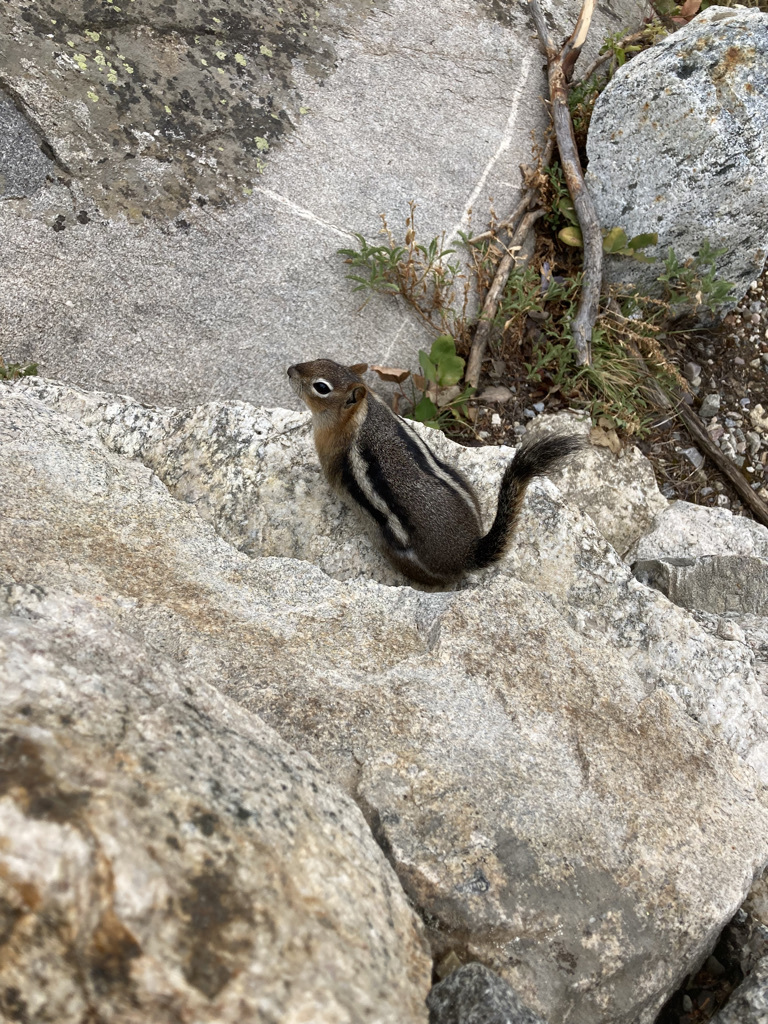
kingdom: Animalia
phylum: Chordata
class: Mammalia
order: Rodentia
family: Sciuridae
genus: Callospermophilus
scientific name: Callospermophilus lateralis
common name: Golden-mantled ground squirrel
